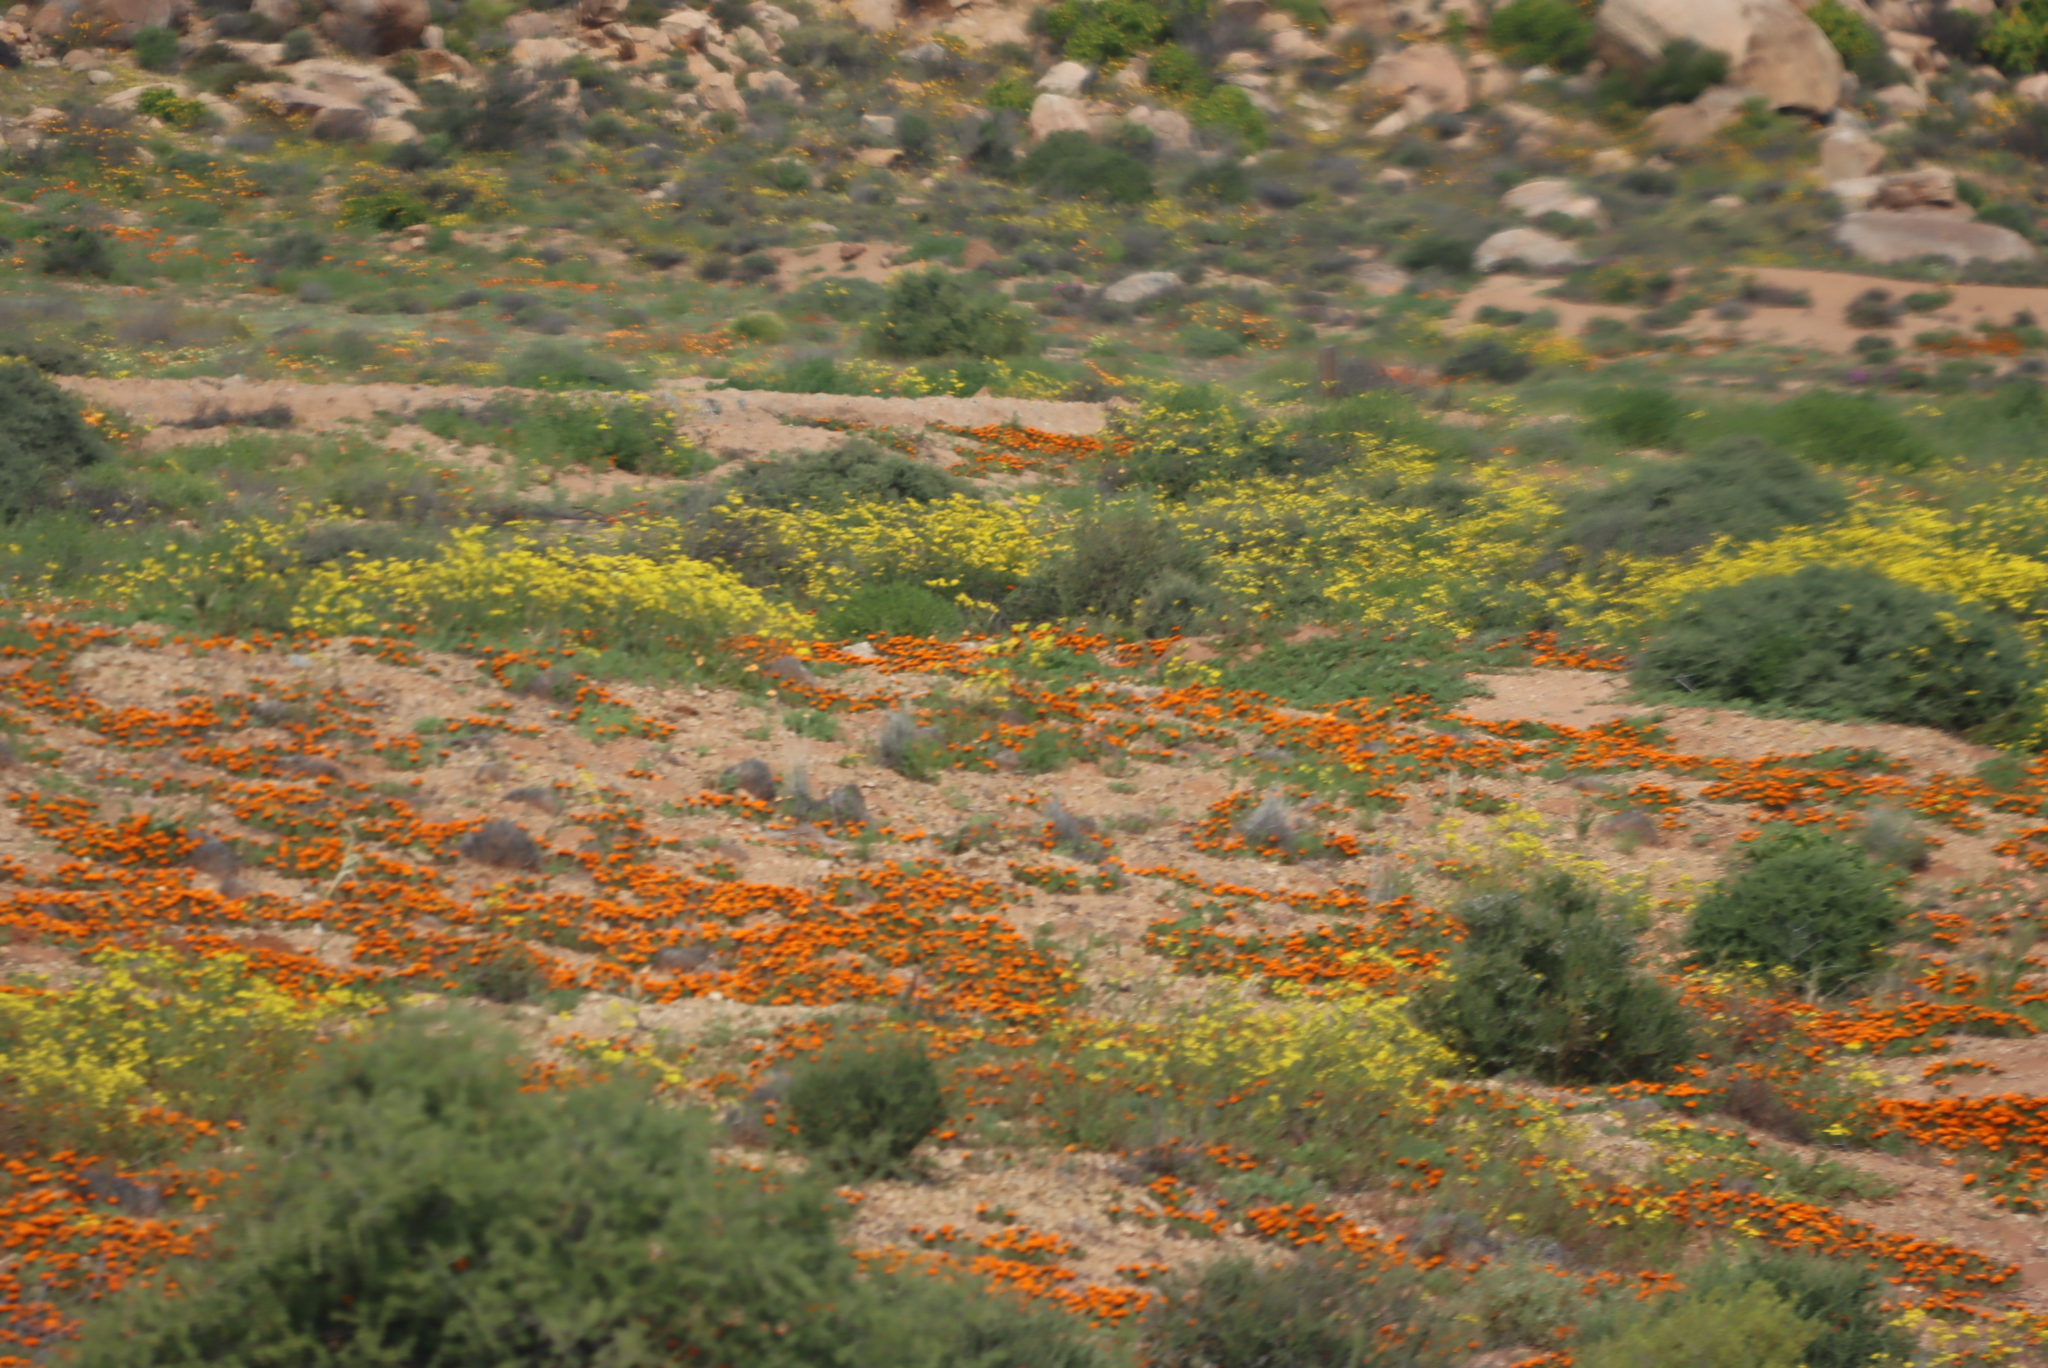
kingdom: Plantae
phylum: Tracheophyta
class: Magnoliopsida
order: Asterales
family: Asteraceae
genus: Gorteria
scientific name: Gorteria diffusa
